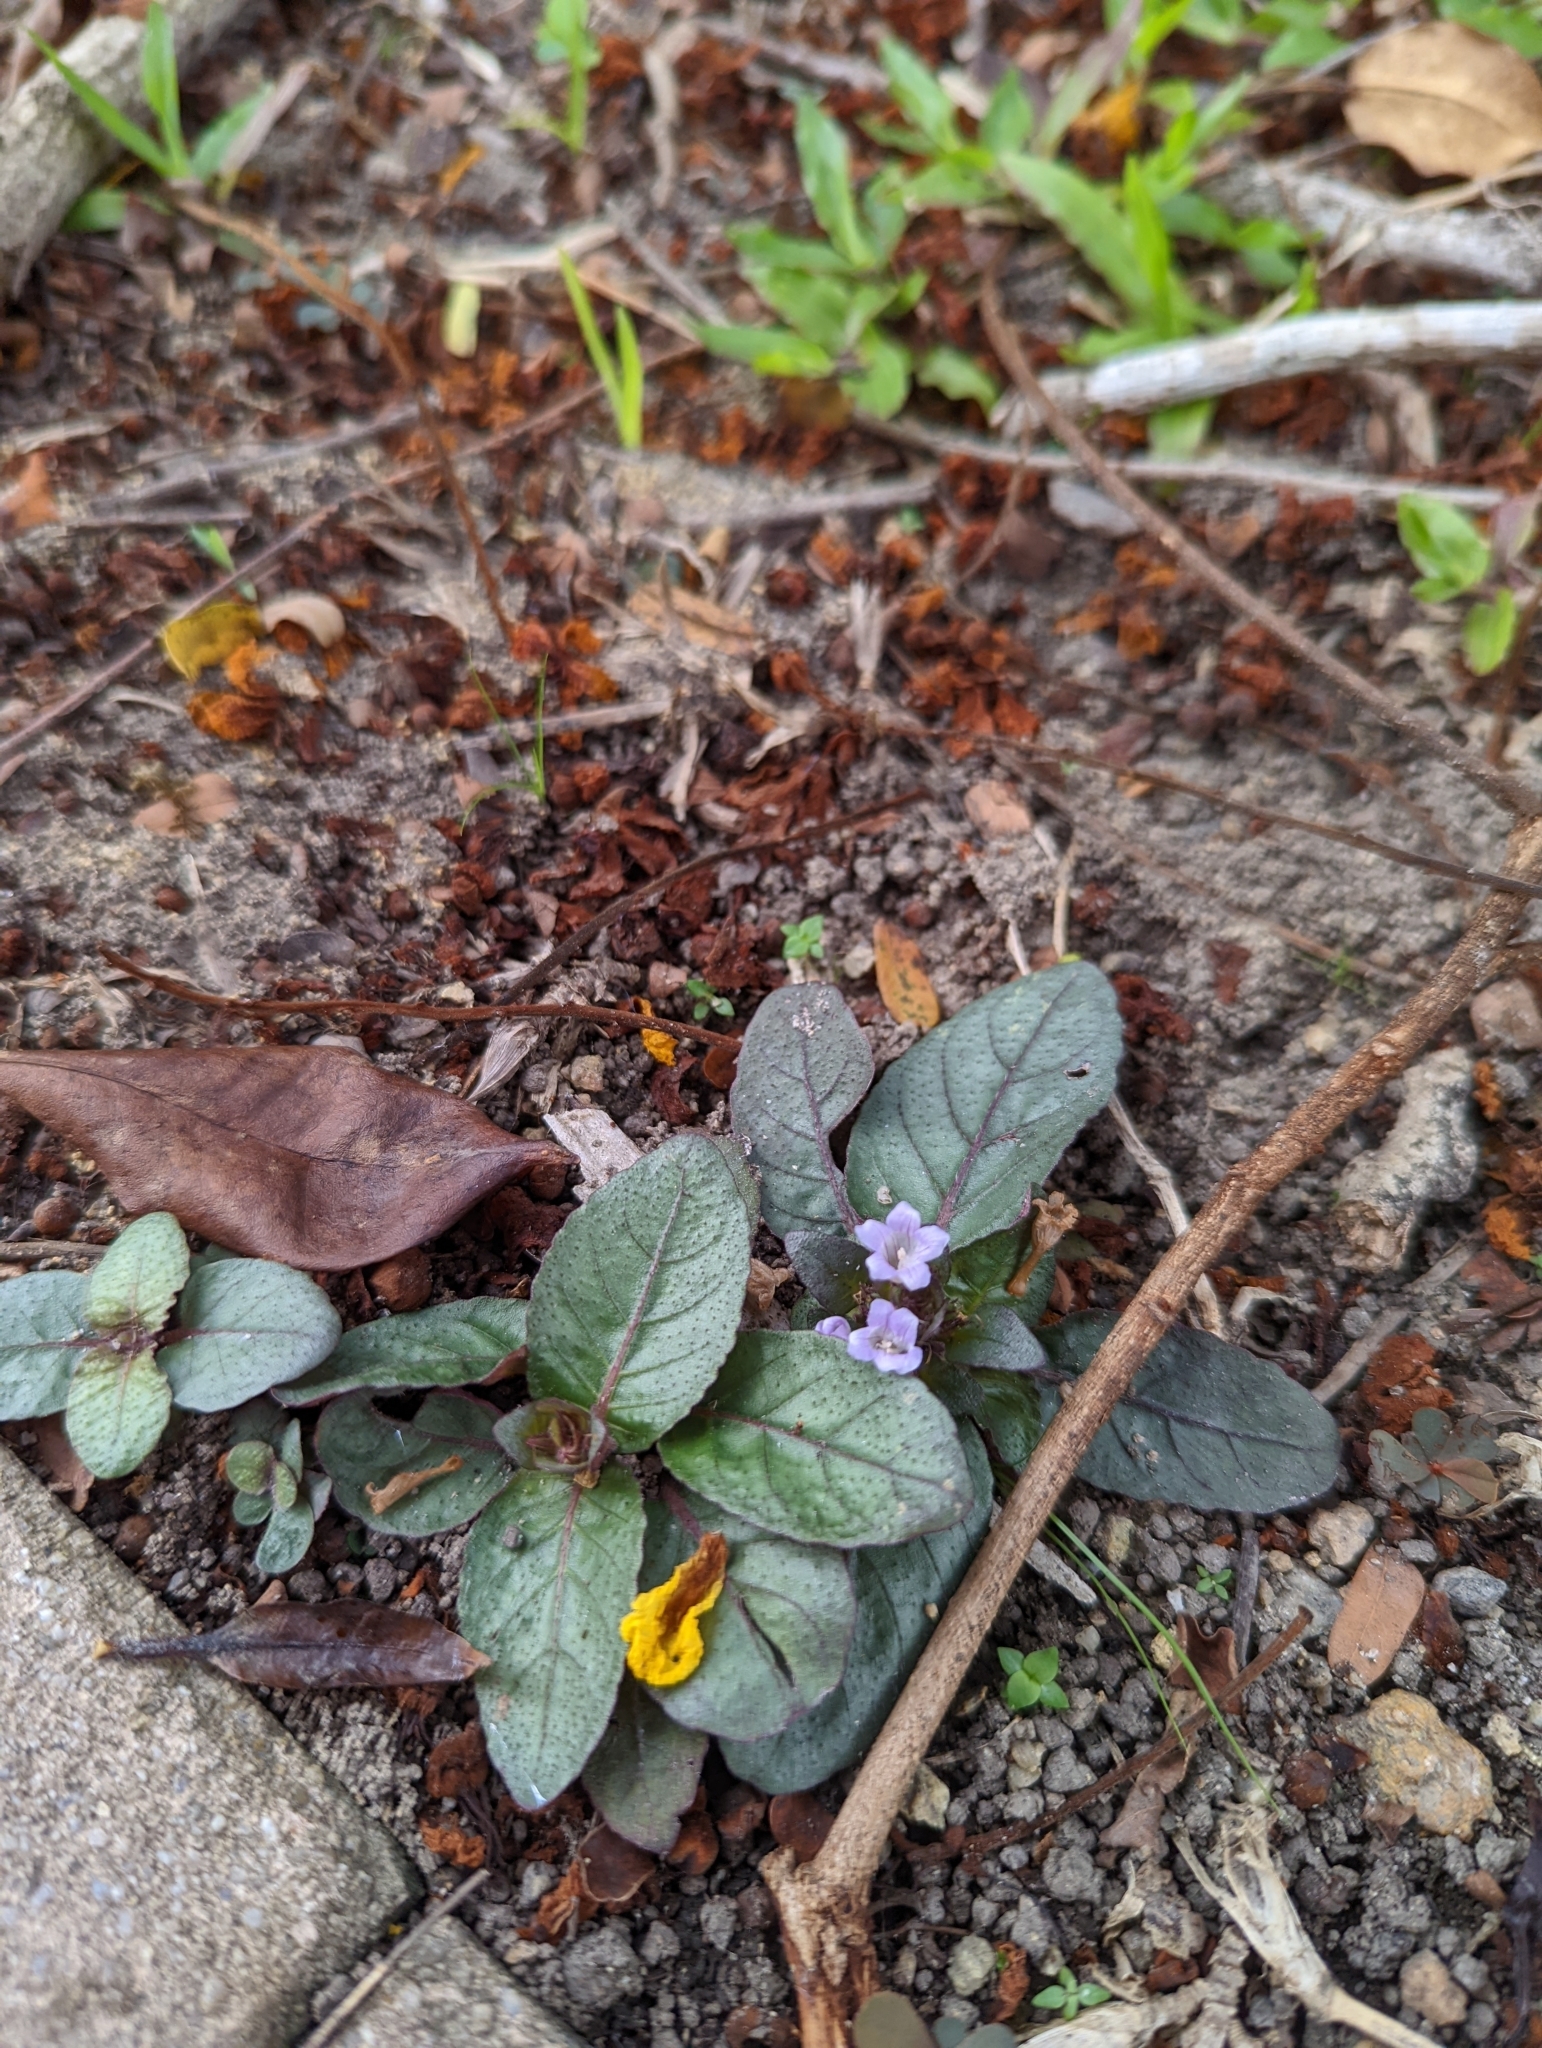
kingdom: Plantae
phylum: Tracheophyta
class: Magnoliopsida
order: Lamiales
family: Acanthaceae
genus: Strobilanthes
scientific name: Strobilanthes reptans
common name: Acanthaceae
